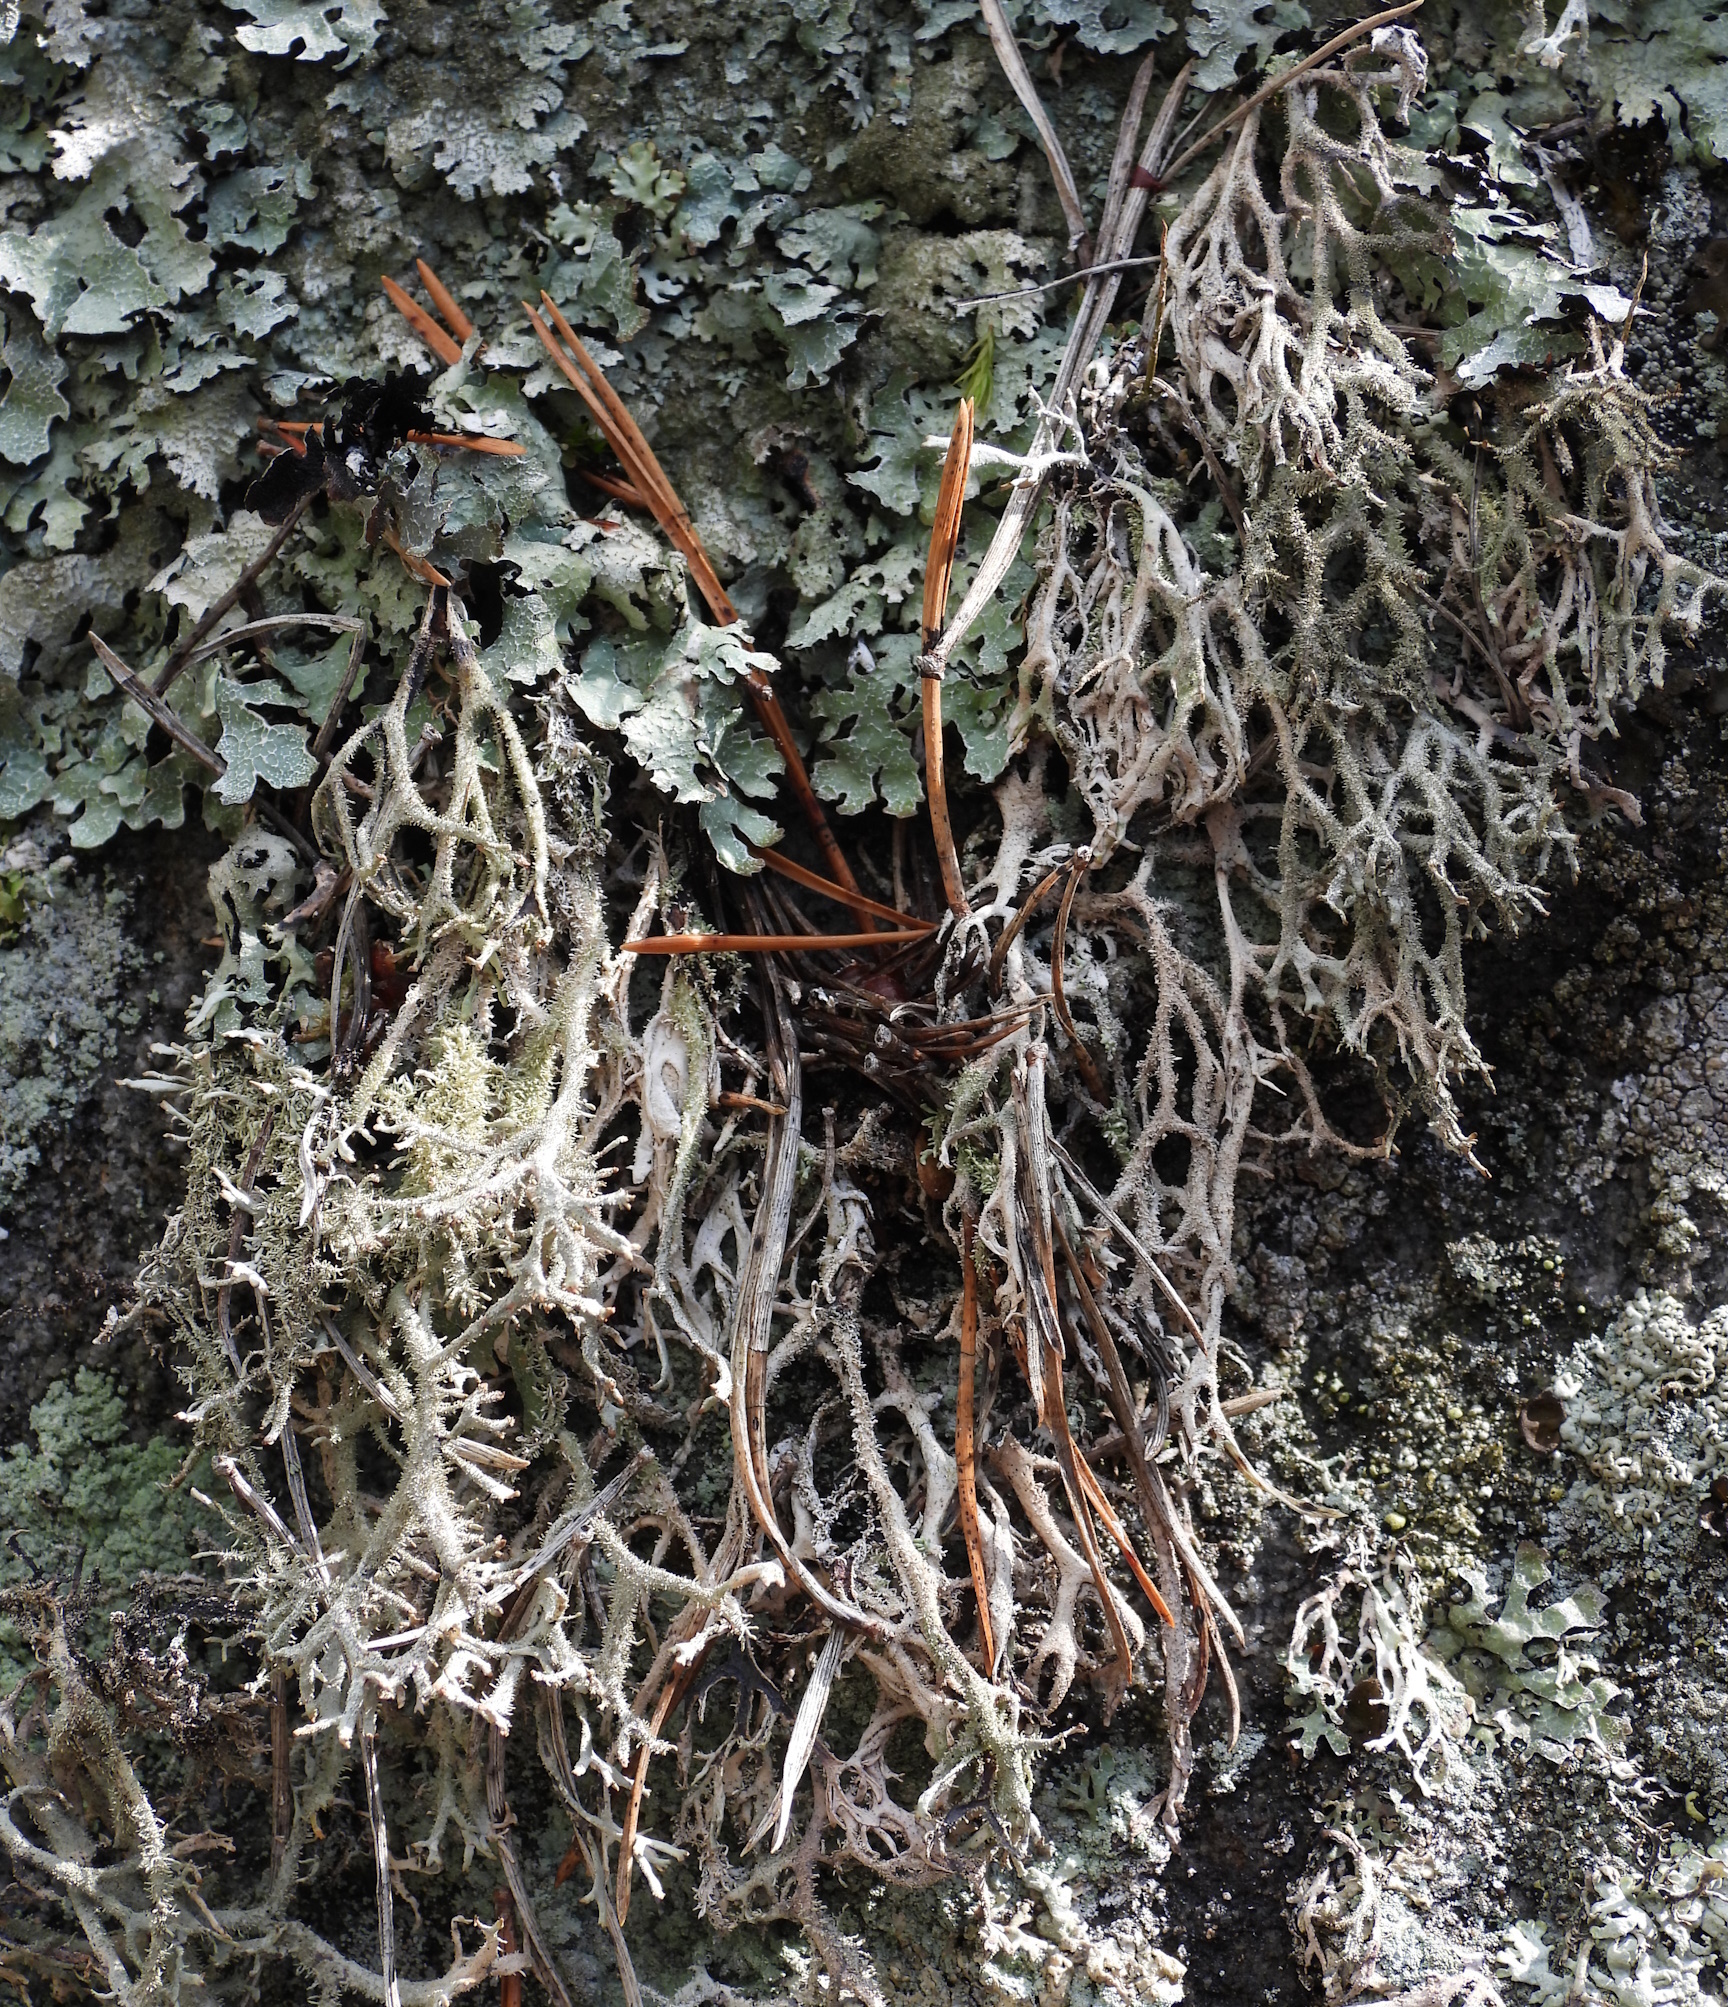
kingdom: Fungi
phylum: Ascomycota
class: Lecanoromycetes
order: Lecanorales
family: Parmeliaceae
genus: Pseudevernia
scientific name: Pseudevernia furfuracea
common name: Tree moss
